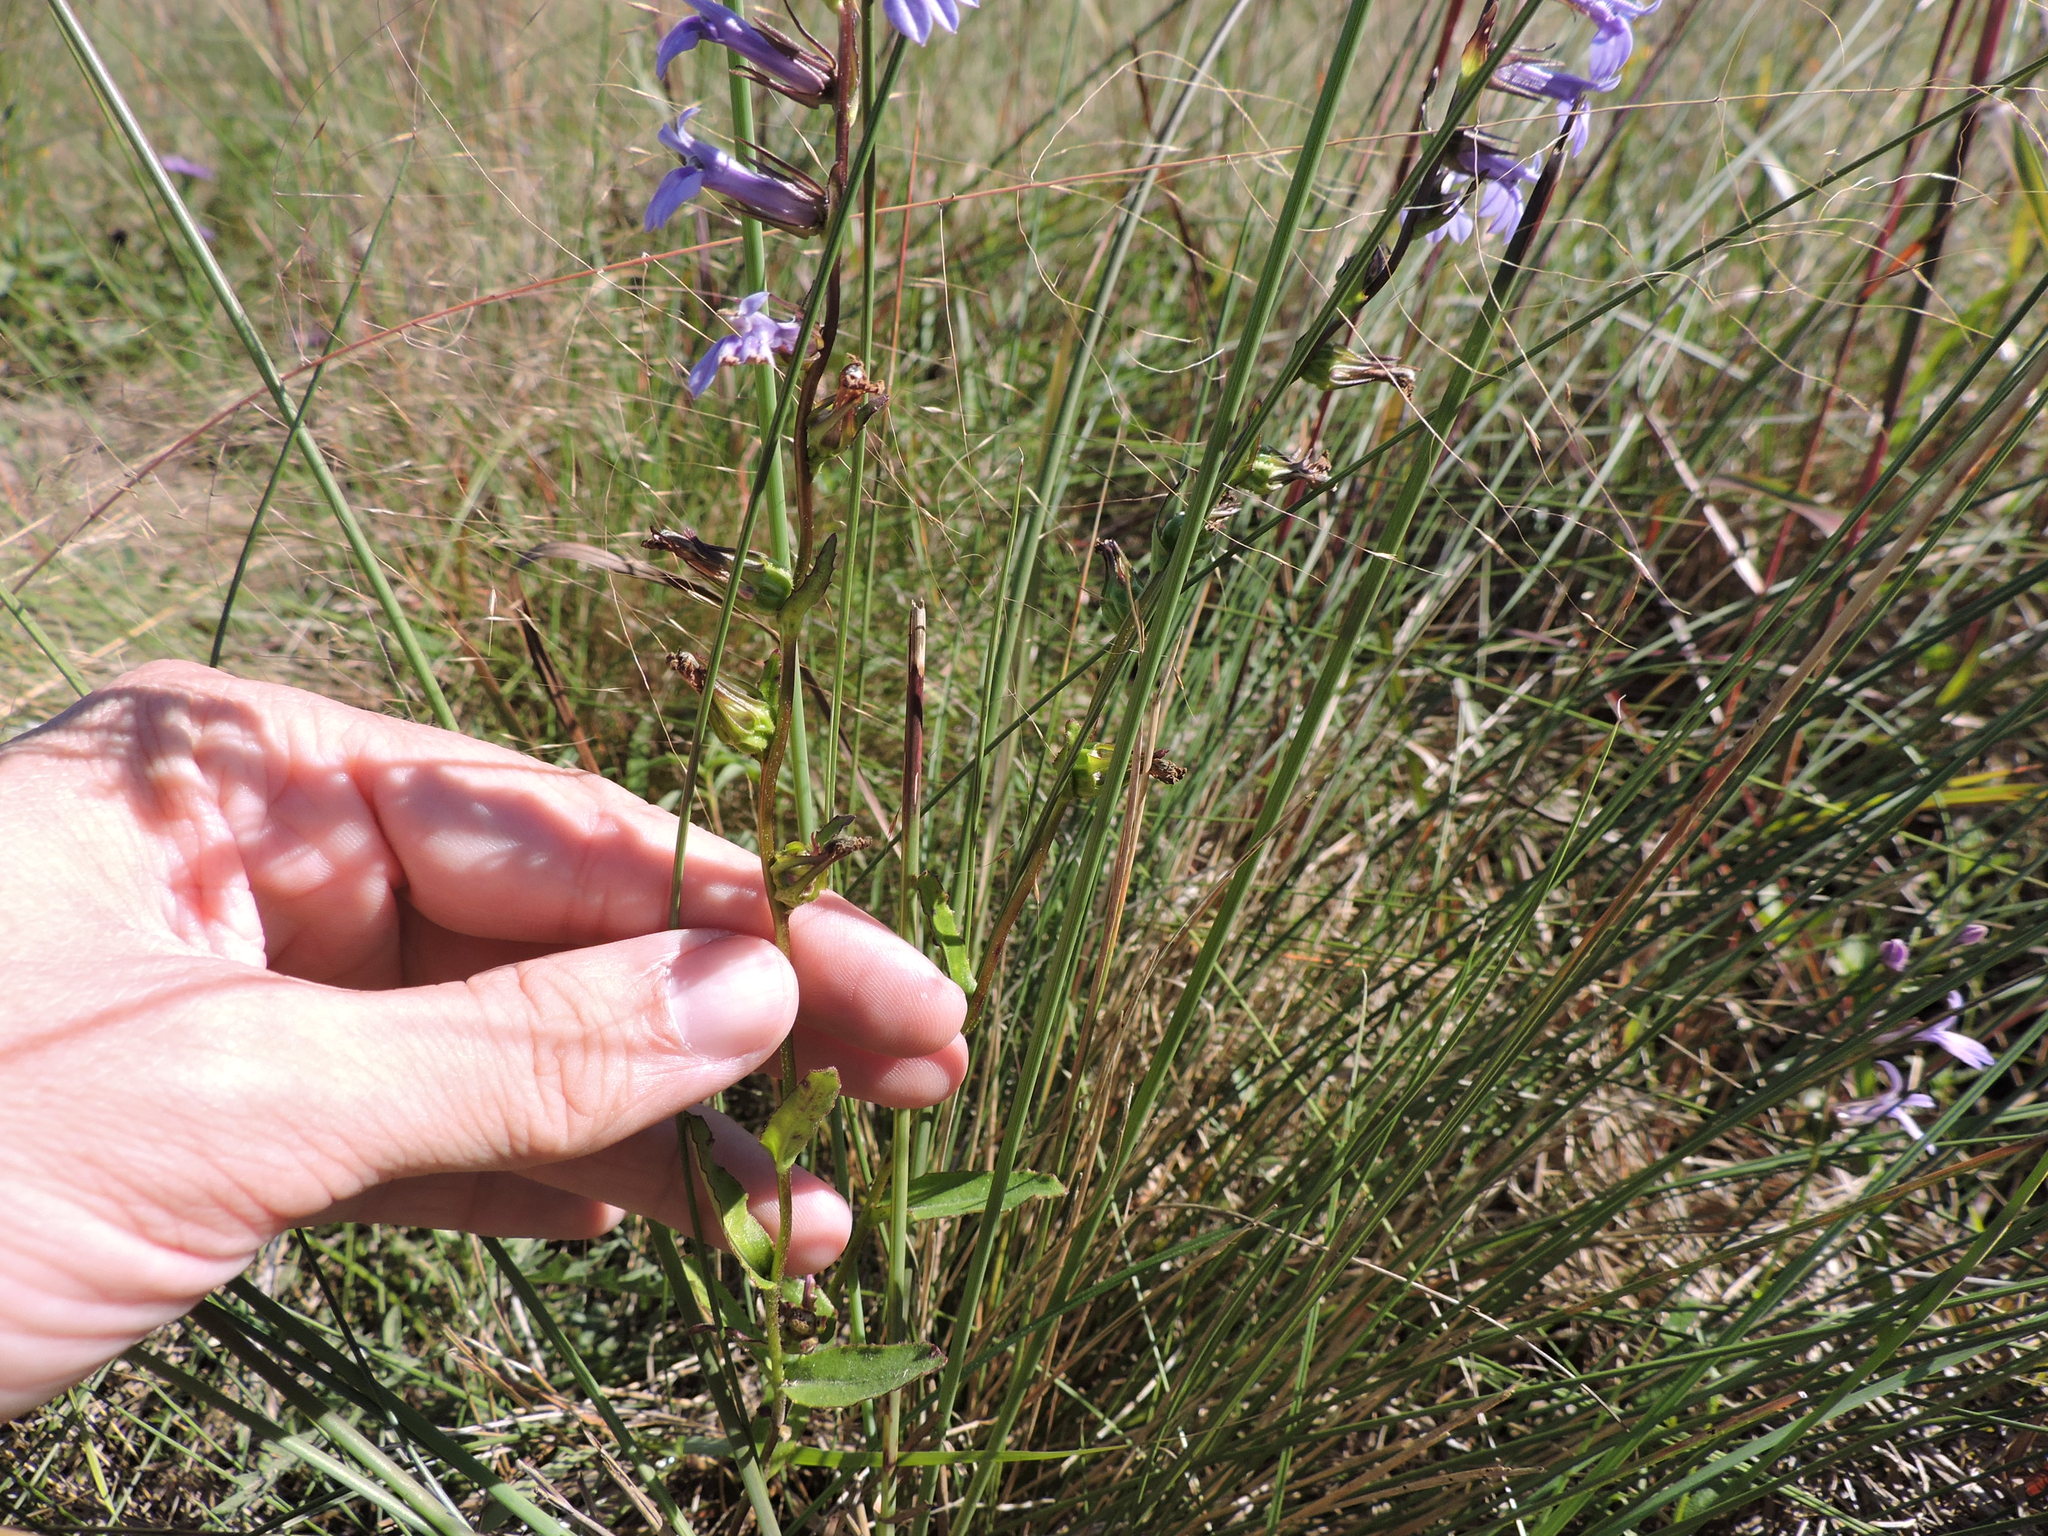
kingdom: Plantae
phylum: Tracheophyta
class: Magnoliopsida
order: Asterales
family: Campanulaceae
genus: Lobelia
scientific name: Lobelia puberula
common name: Purple dewdrop
